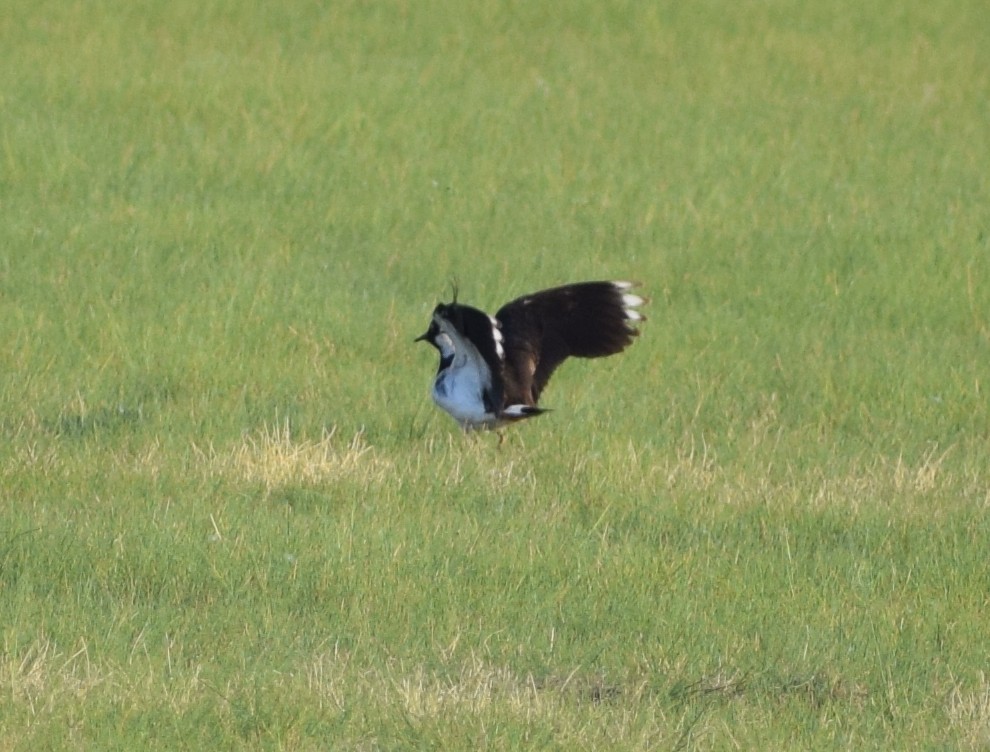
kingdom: Animalia
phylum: Chordata
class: Aves
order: Charadriiformes
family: Charadriidae
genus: Vanellus
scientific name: Vanellus vanellus
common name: Northern lapwing
